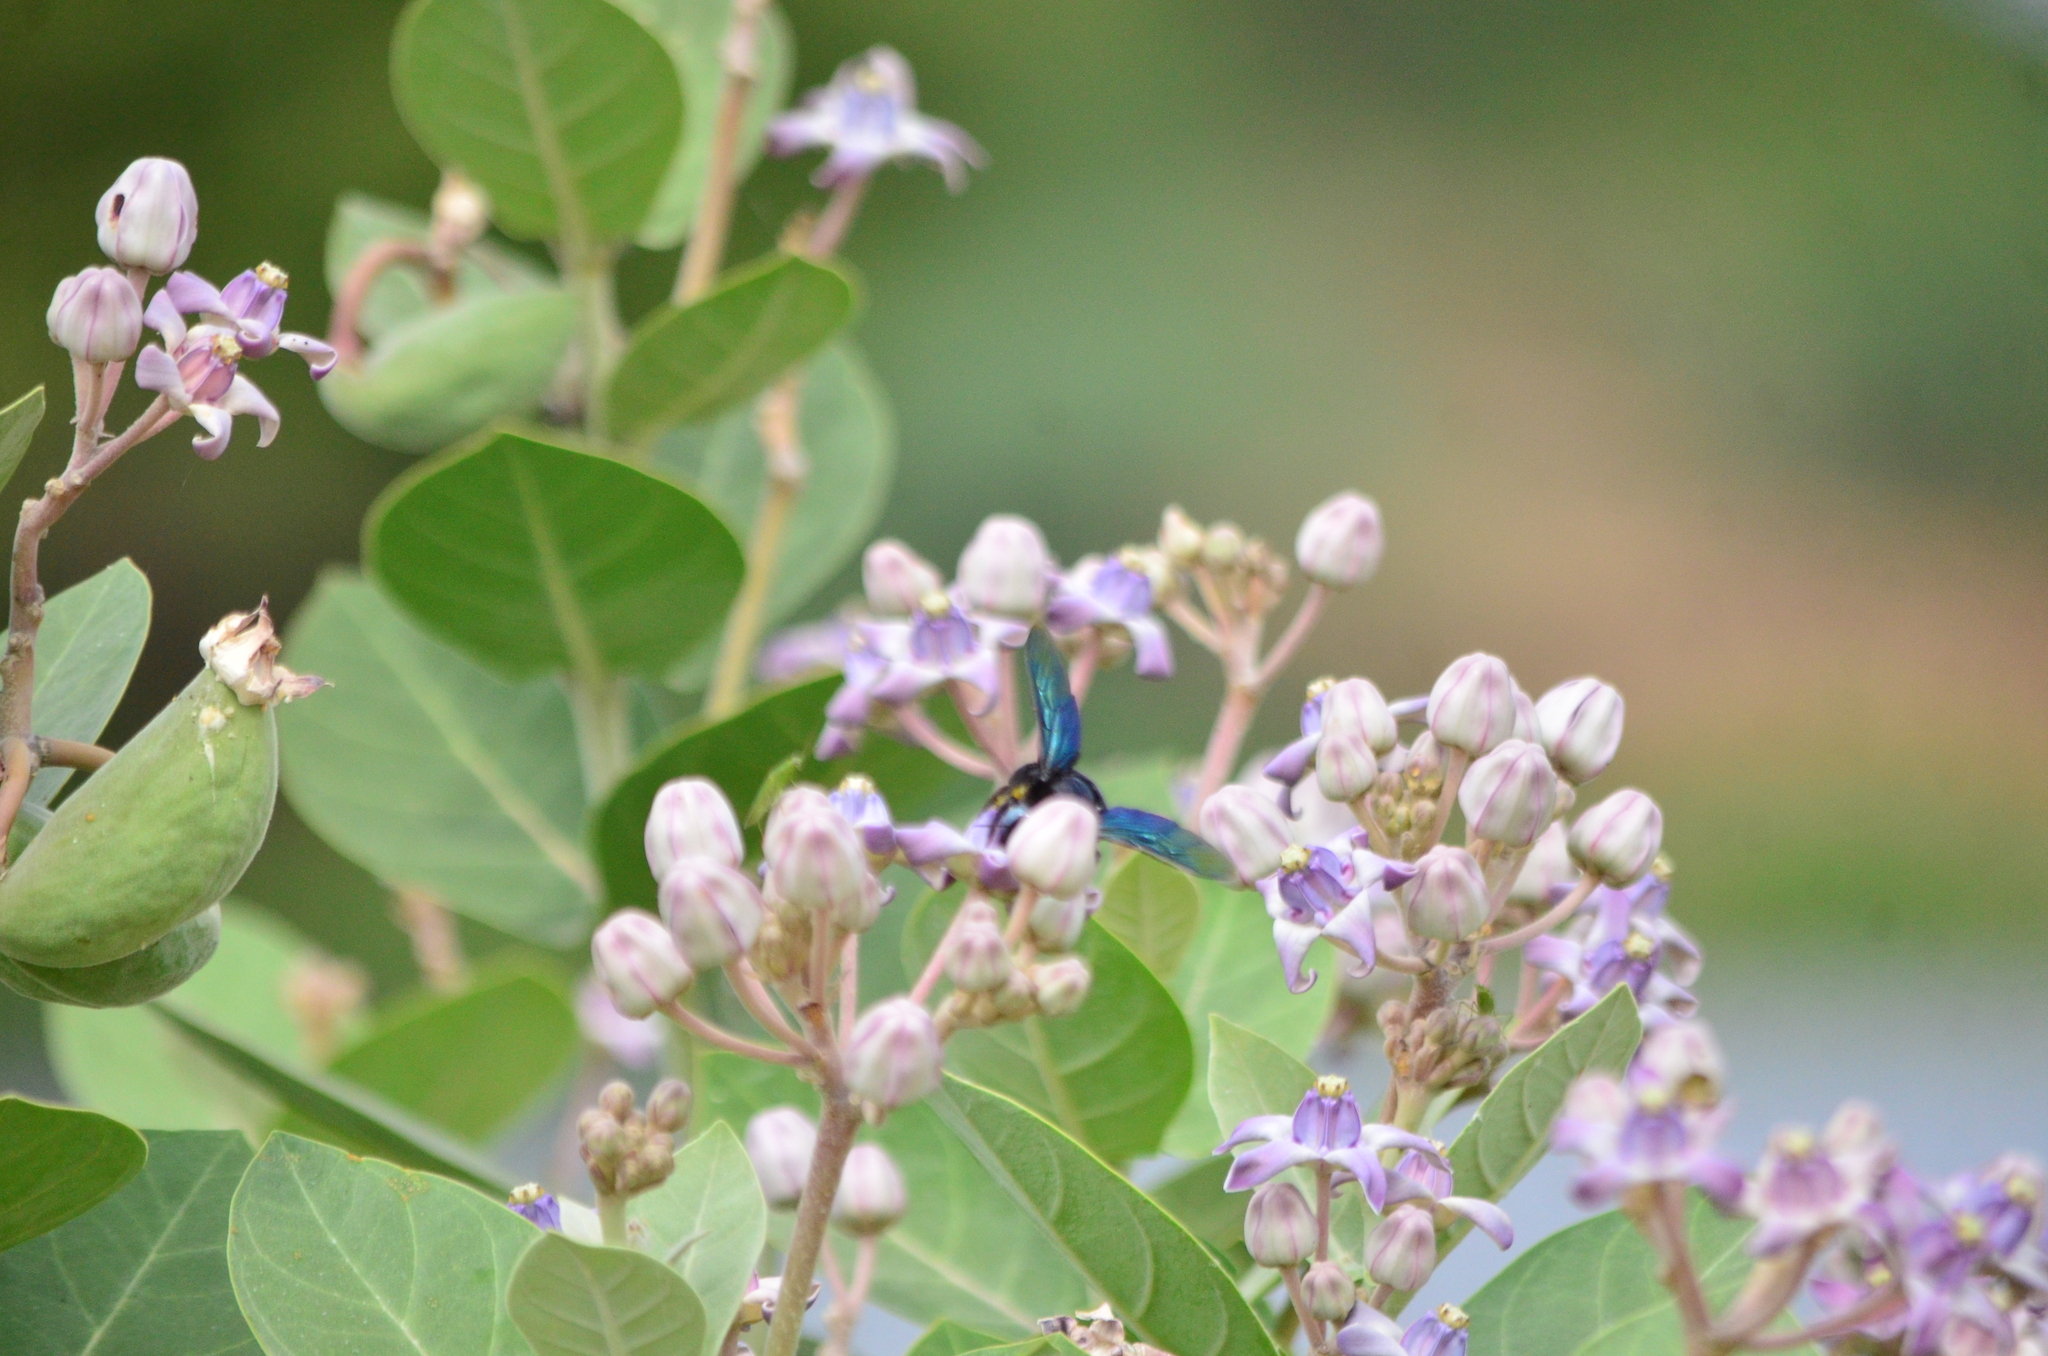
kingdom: Animalia
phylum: Arthropoda
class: Insecta
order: Hymenoptera
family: Apidae
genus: Xylocopa
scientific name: Xylocopa tenuiscapa
